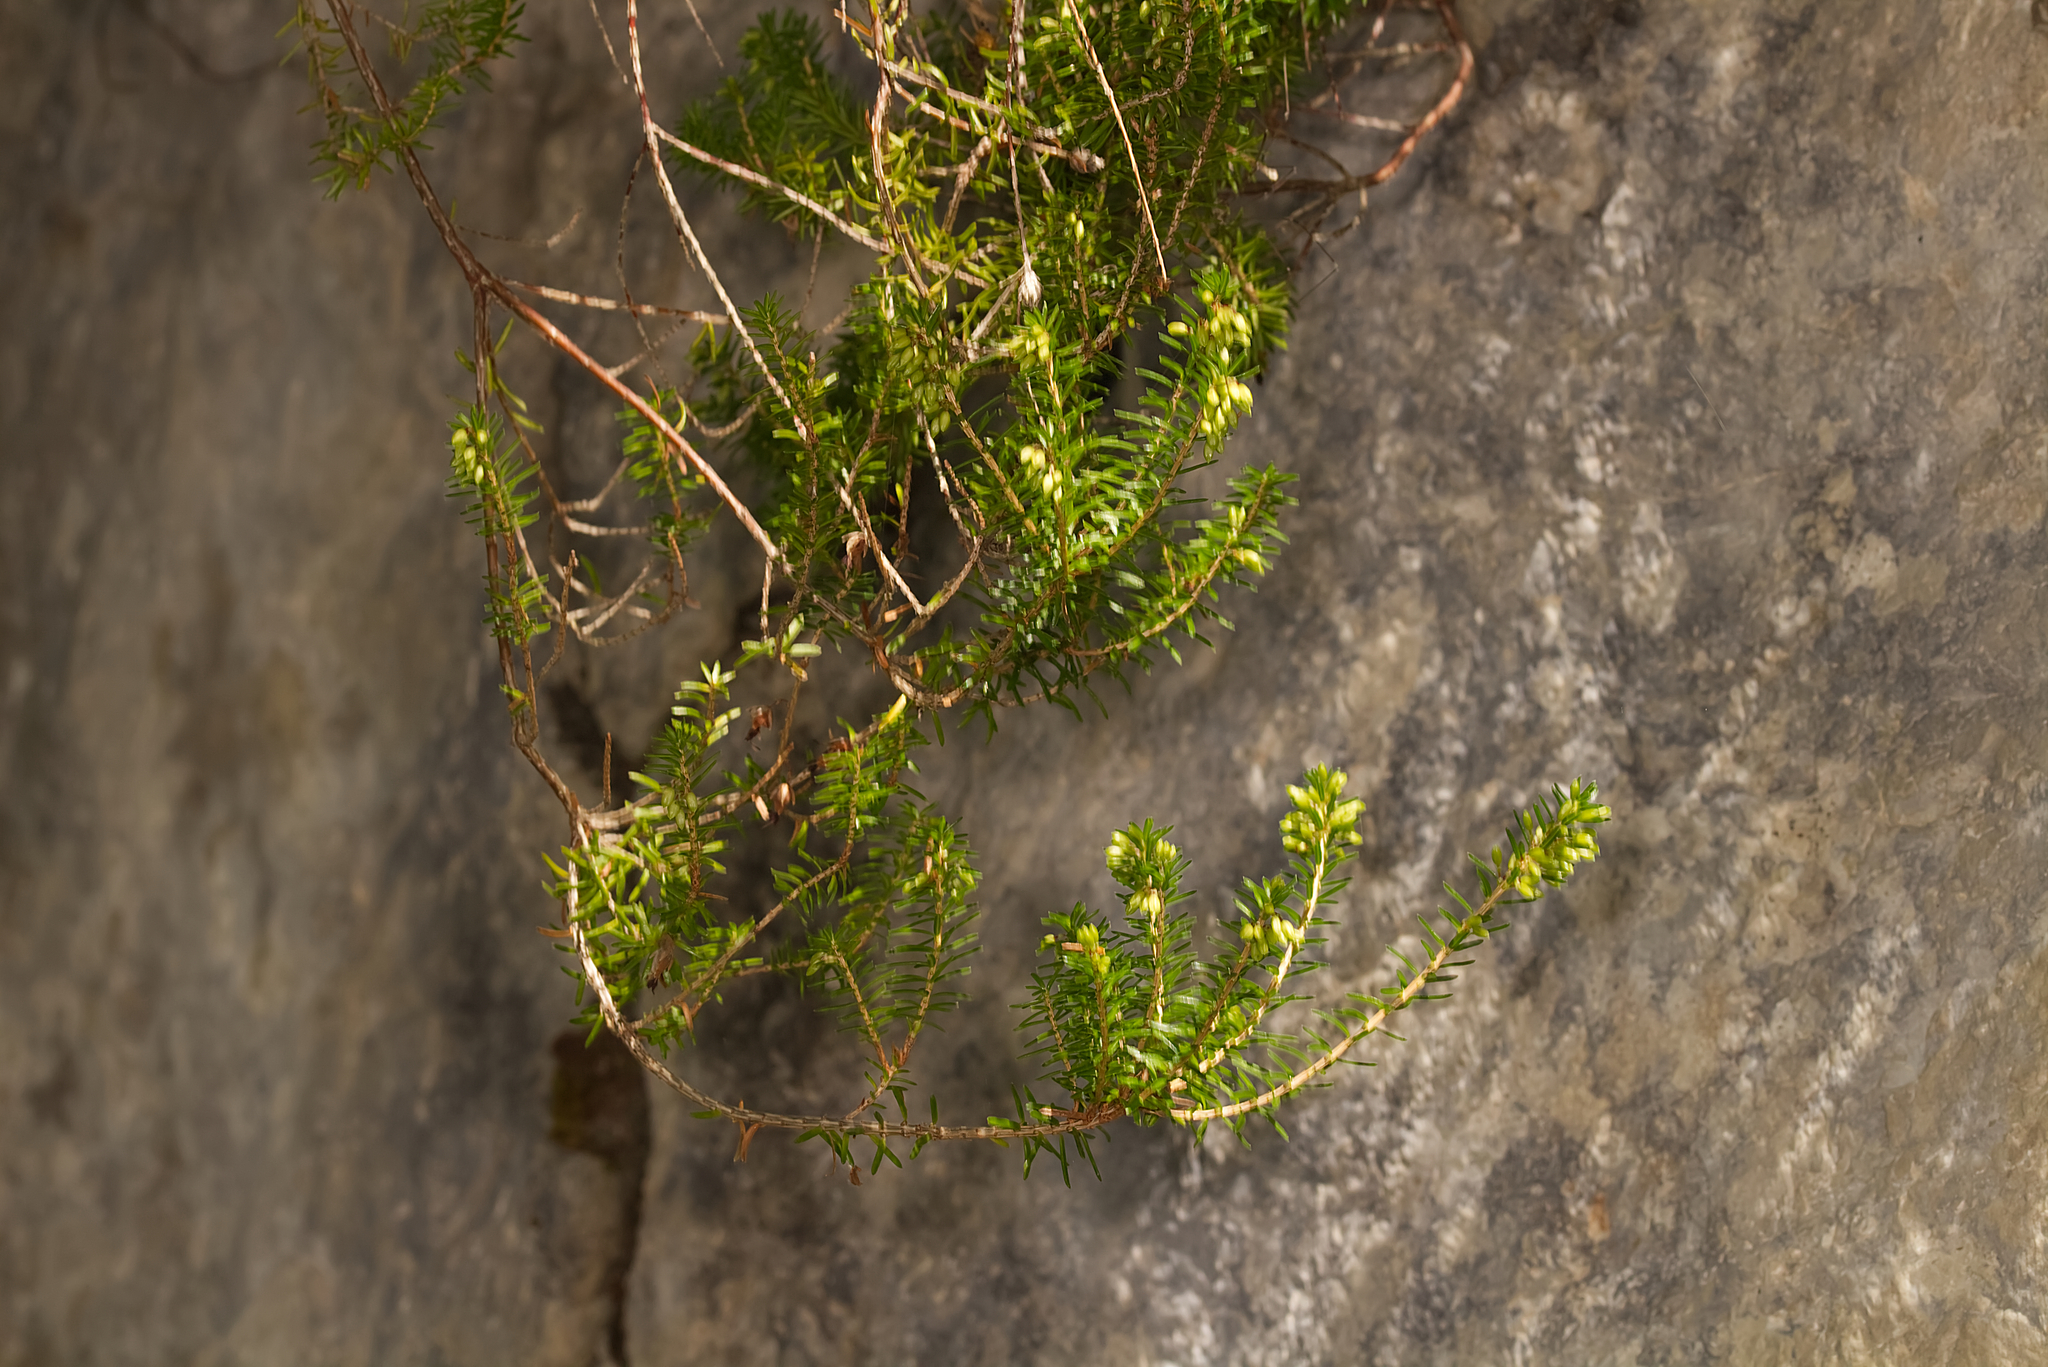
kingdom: Plantae
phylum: Tracheophyta
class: Magnoliopsida
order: Ericales
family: Ericaceae
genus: Erica
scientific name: Erica carnea
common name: Winter heath
